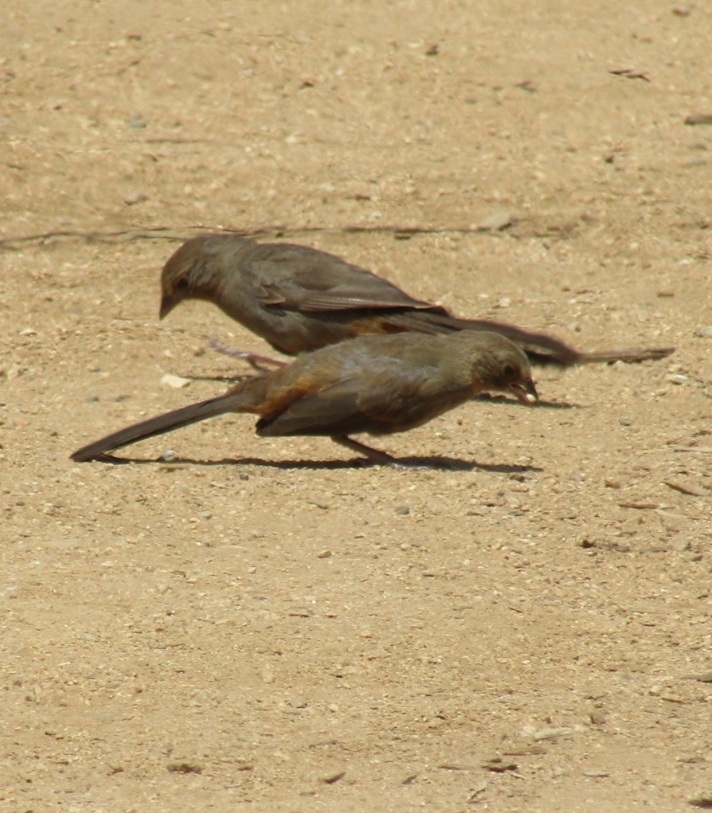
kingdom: Animalia
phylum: Chordata
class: Aves
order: Passeriformes
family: Passerellidae
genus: Melozone
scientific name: Melozone crissalis
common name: California towhee
